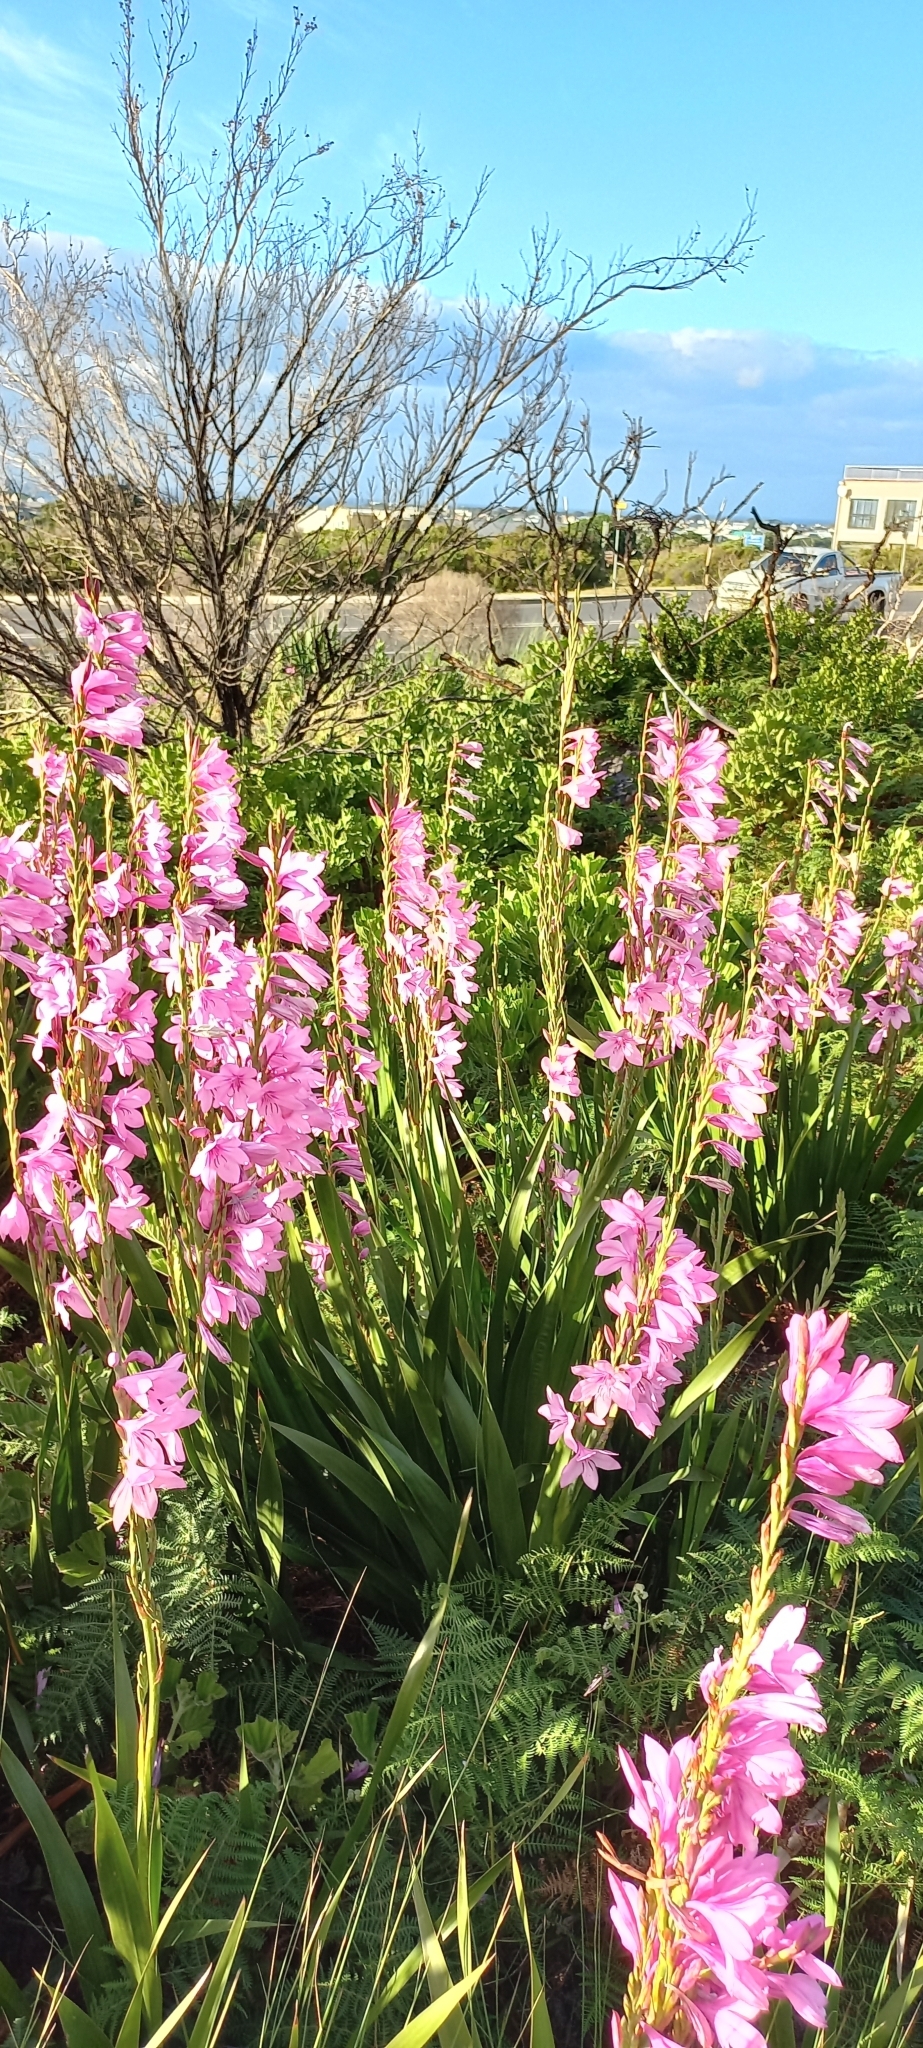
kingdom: Plantae
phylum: Tracheophyta
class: Liliopsida
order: Asparagales
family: Iridaceae
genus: Watsonia
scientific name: Watsonia borbonica
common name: Bugle-lily
